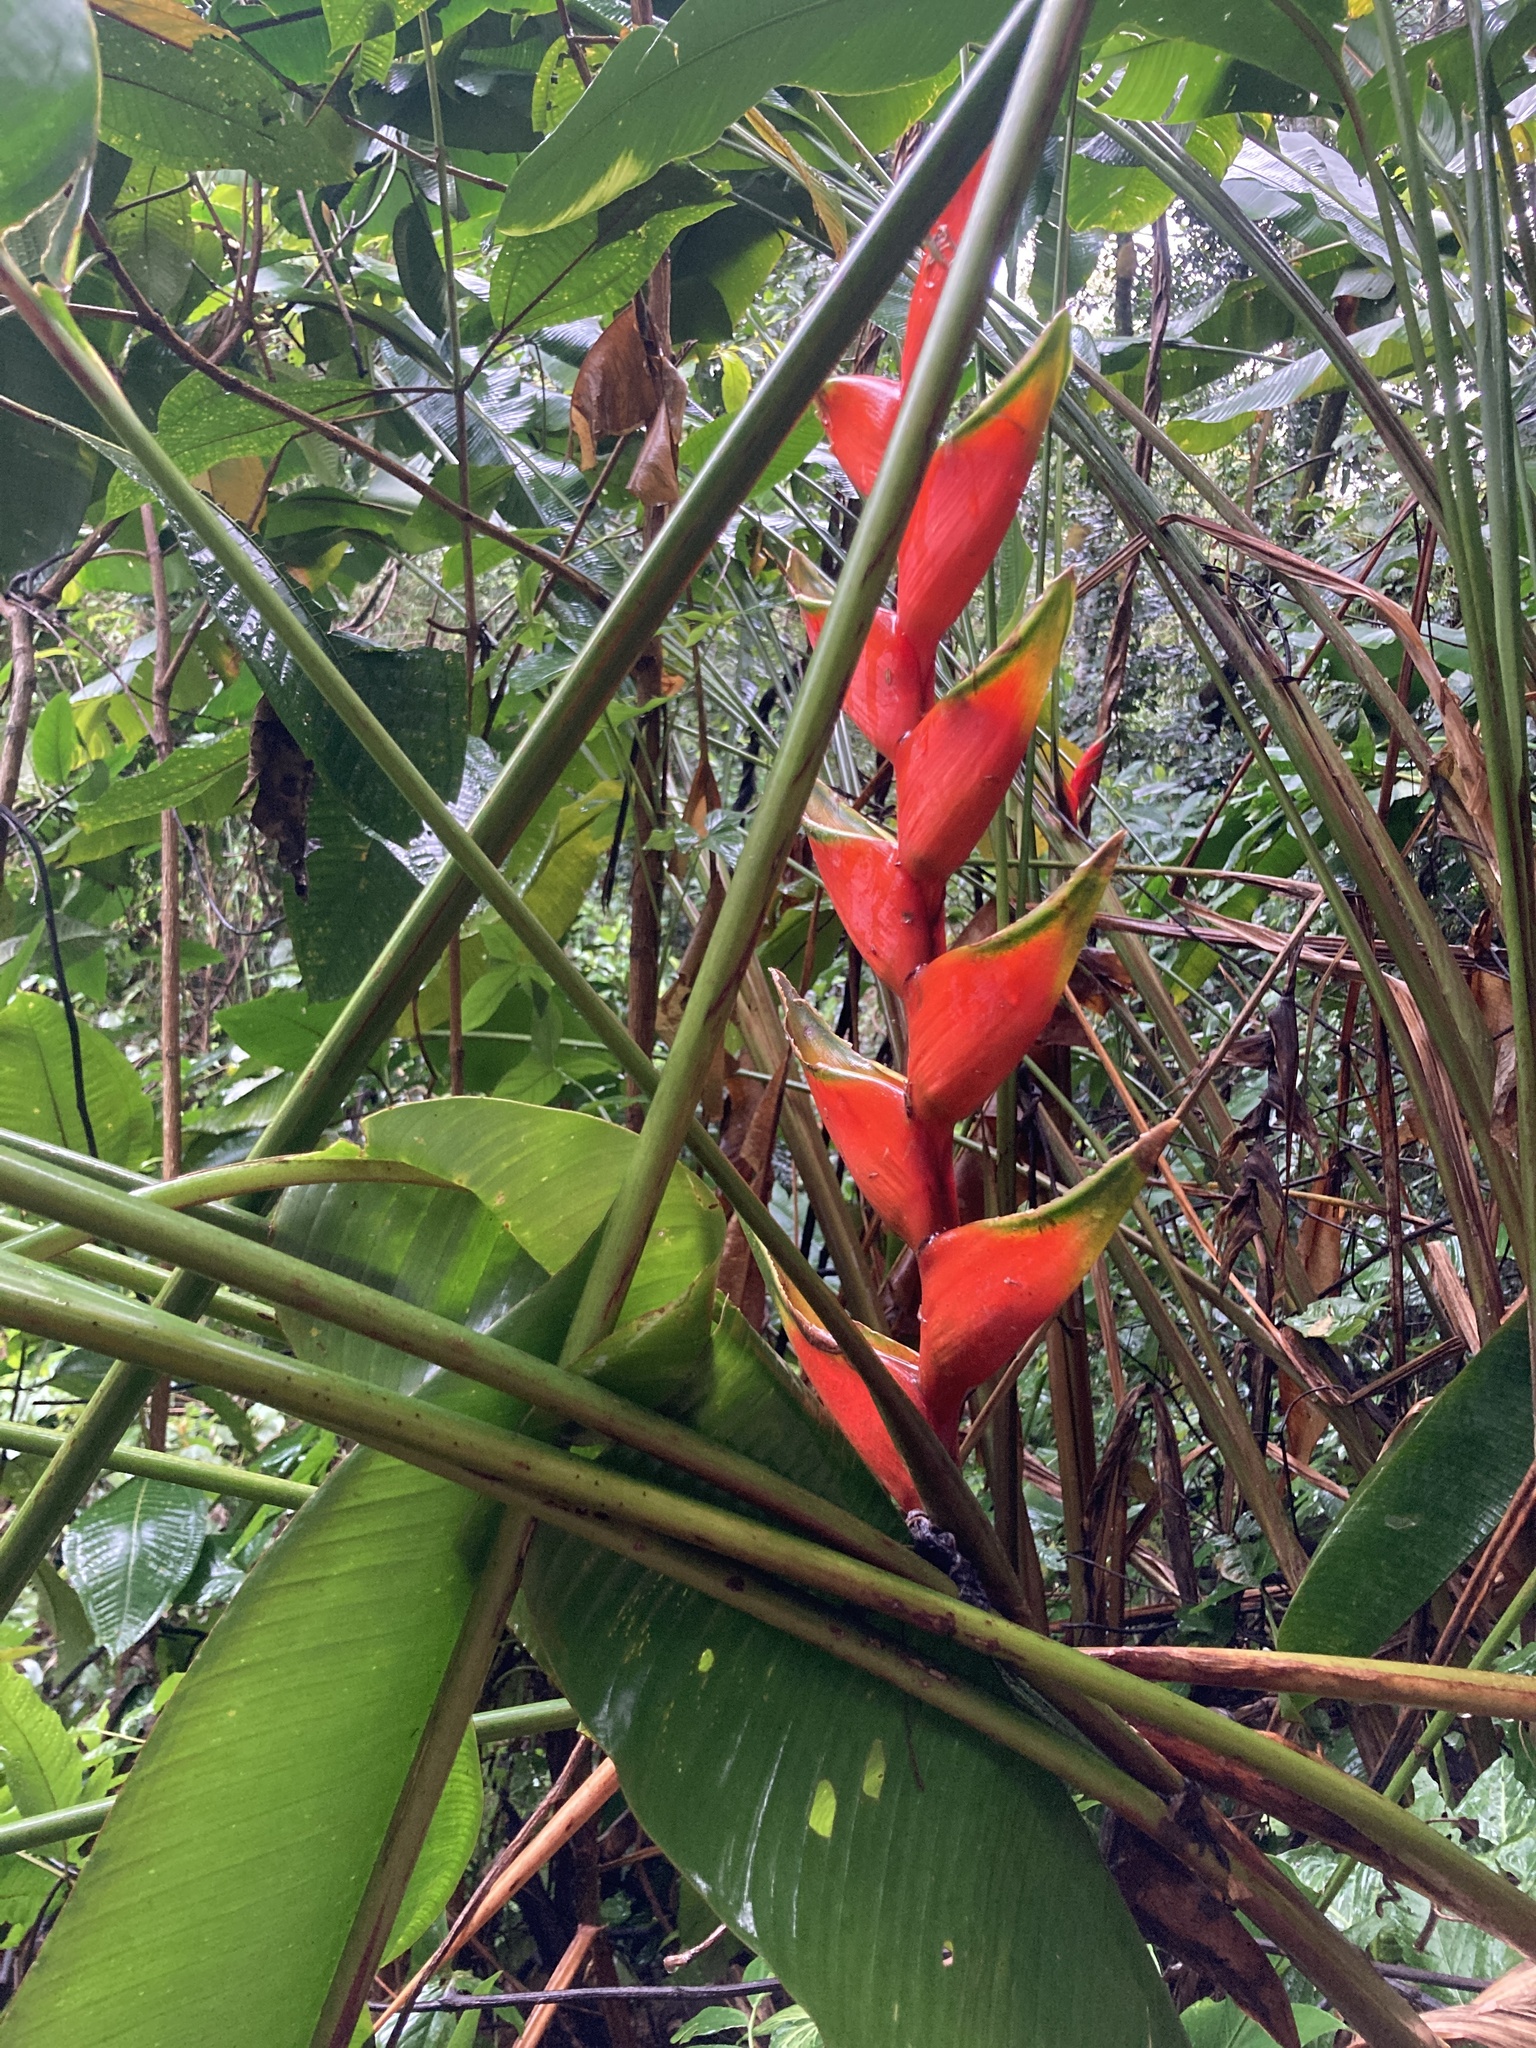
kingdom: Plantae
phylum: Tracheophyta
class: Liliopsida
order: Zingiberales
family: Heliconiaceae
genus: Heliconia
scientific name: Heliconia bihai
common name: Macaw flower
